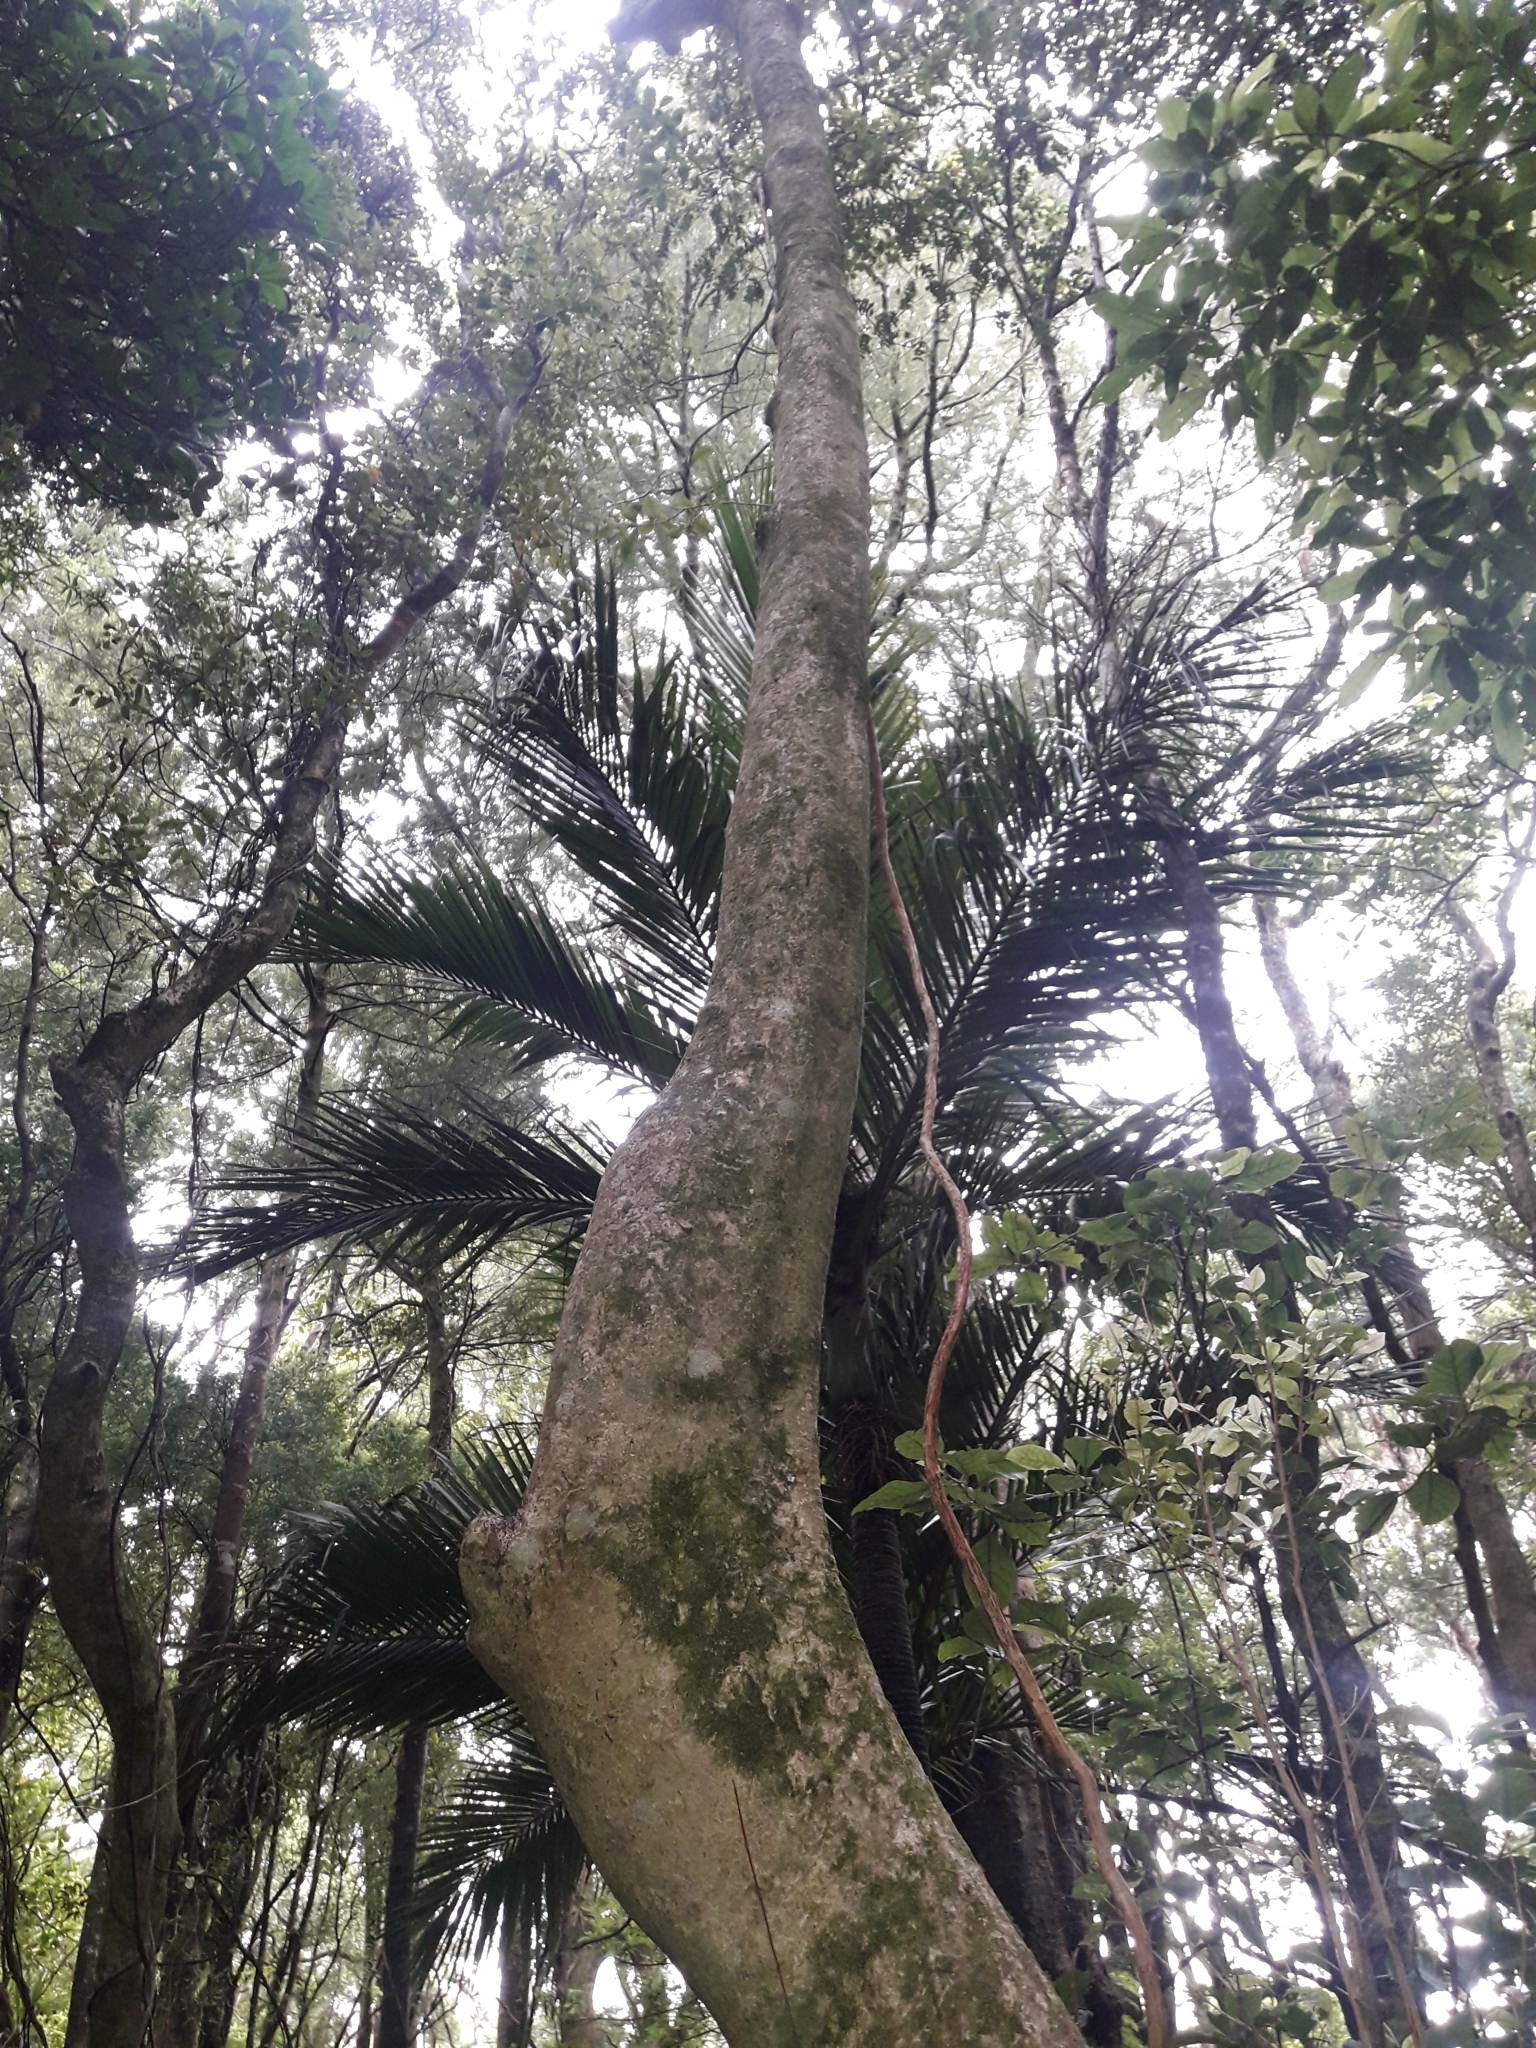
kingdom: Plantae
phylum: Tracheophyta
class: Magnoliopsida
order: Myrtales
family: Myrtaceae
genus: Syzygium
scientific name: Syzygium maire
